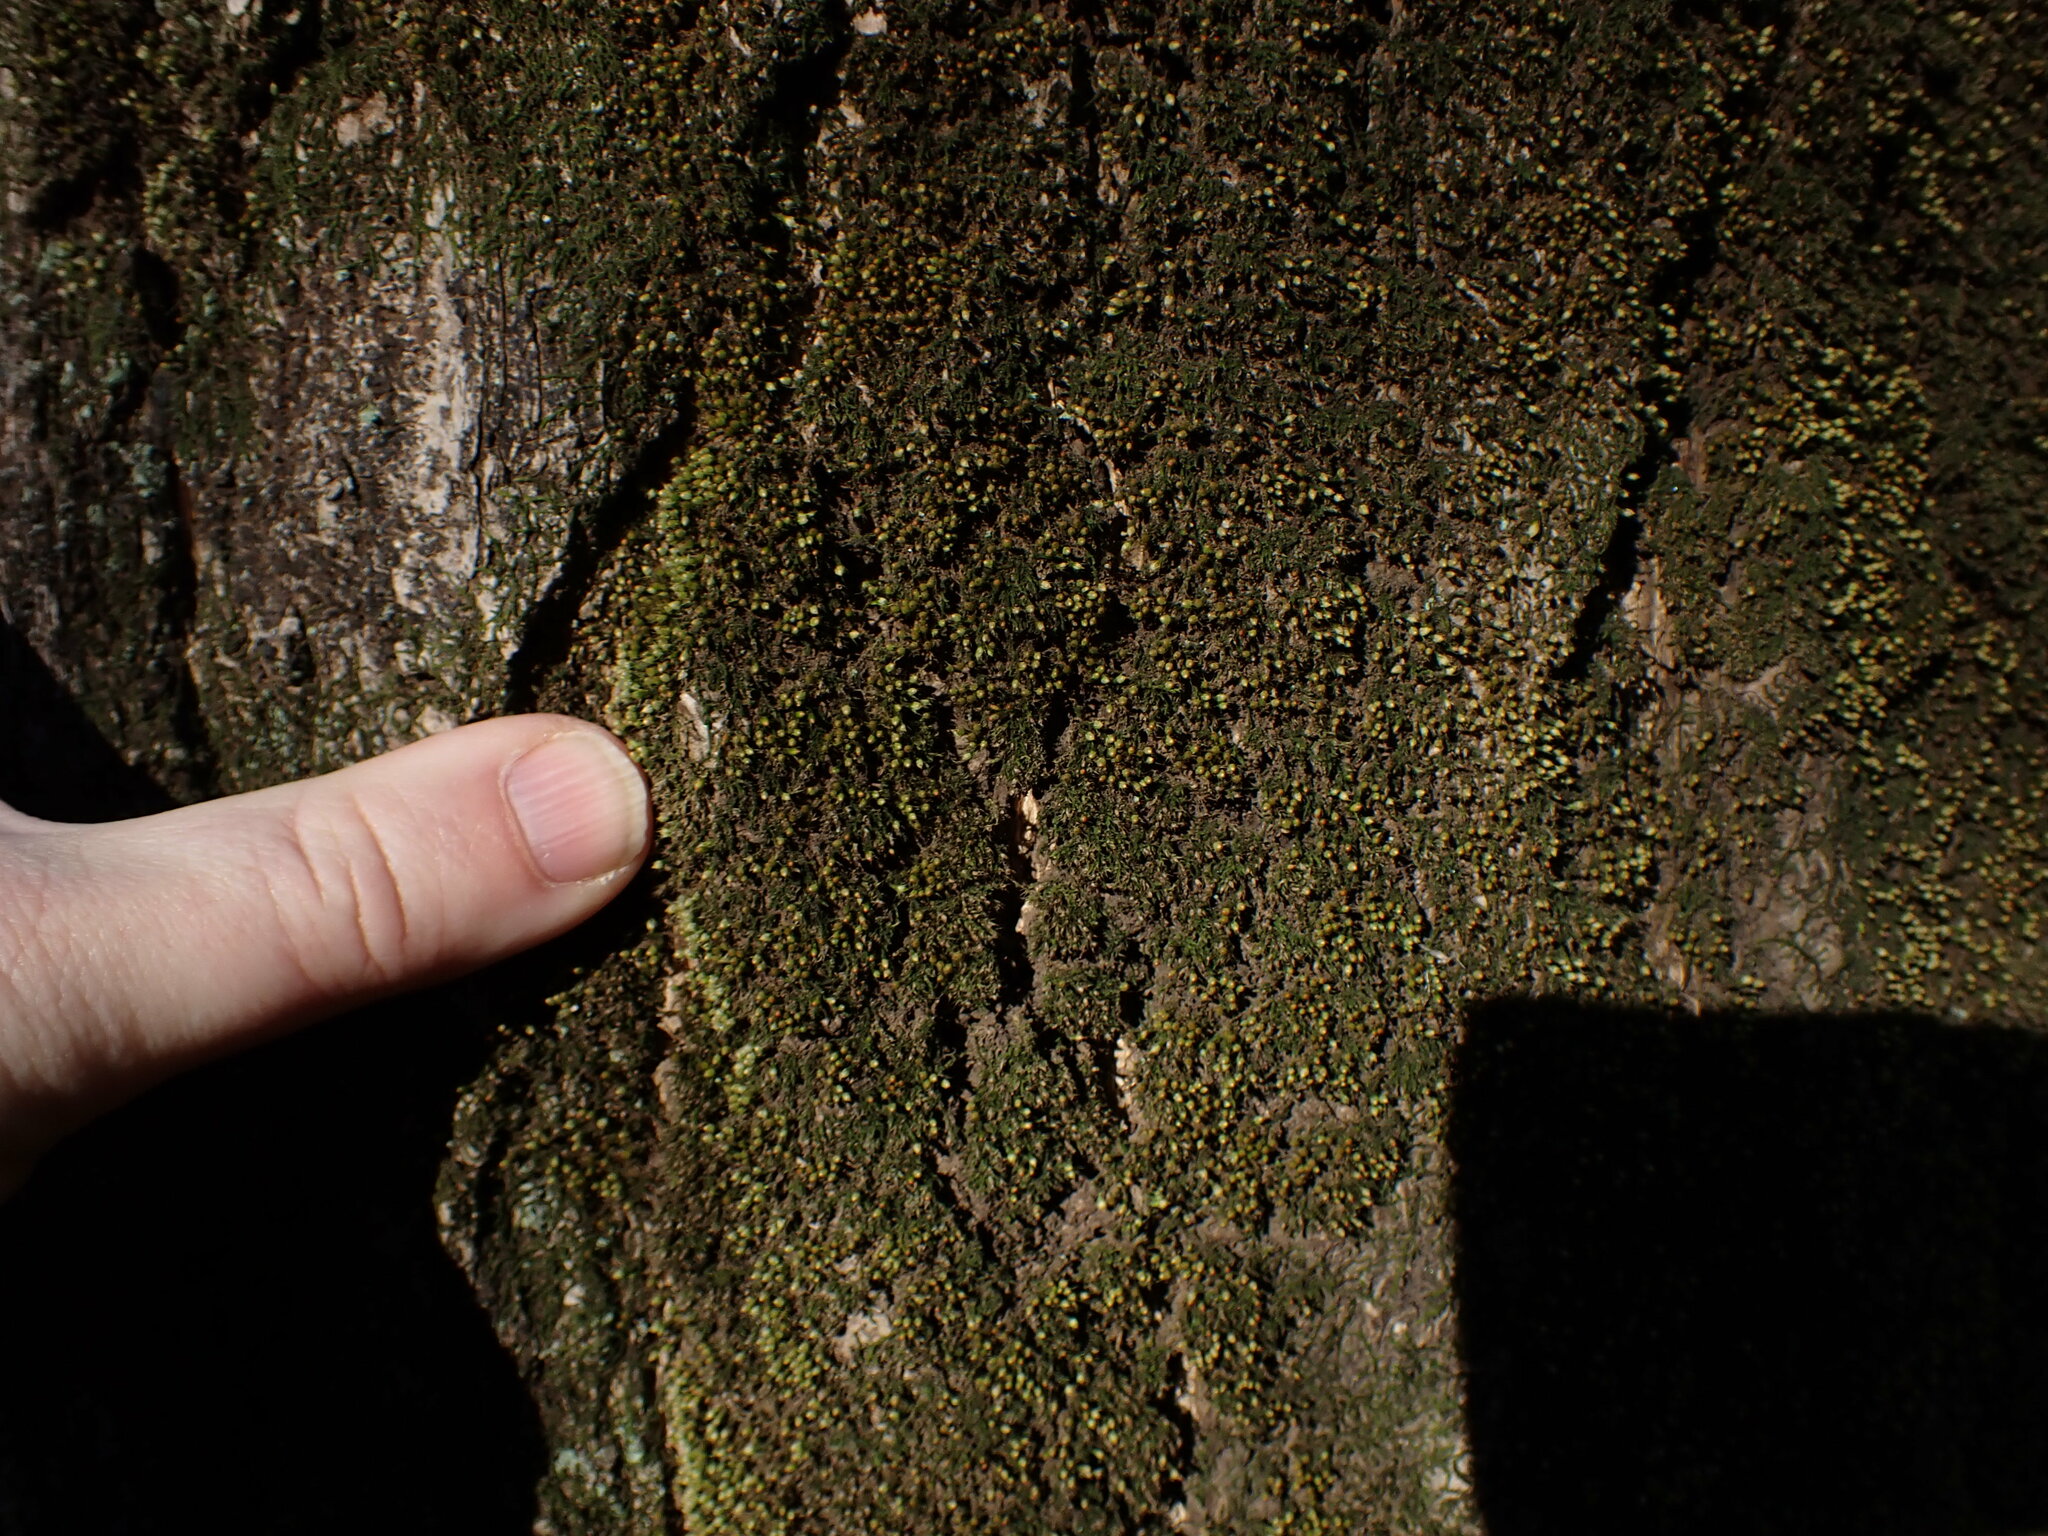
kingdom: Plantae
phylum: Bryophyta
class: Bryopsida
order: Dicranales
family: Erpodiaceae
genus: Venturiella
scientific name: Venturiella sinensis
